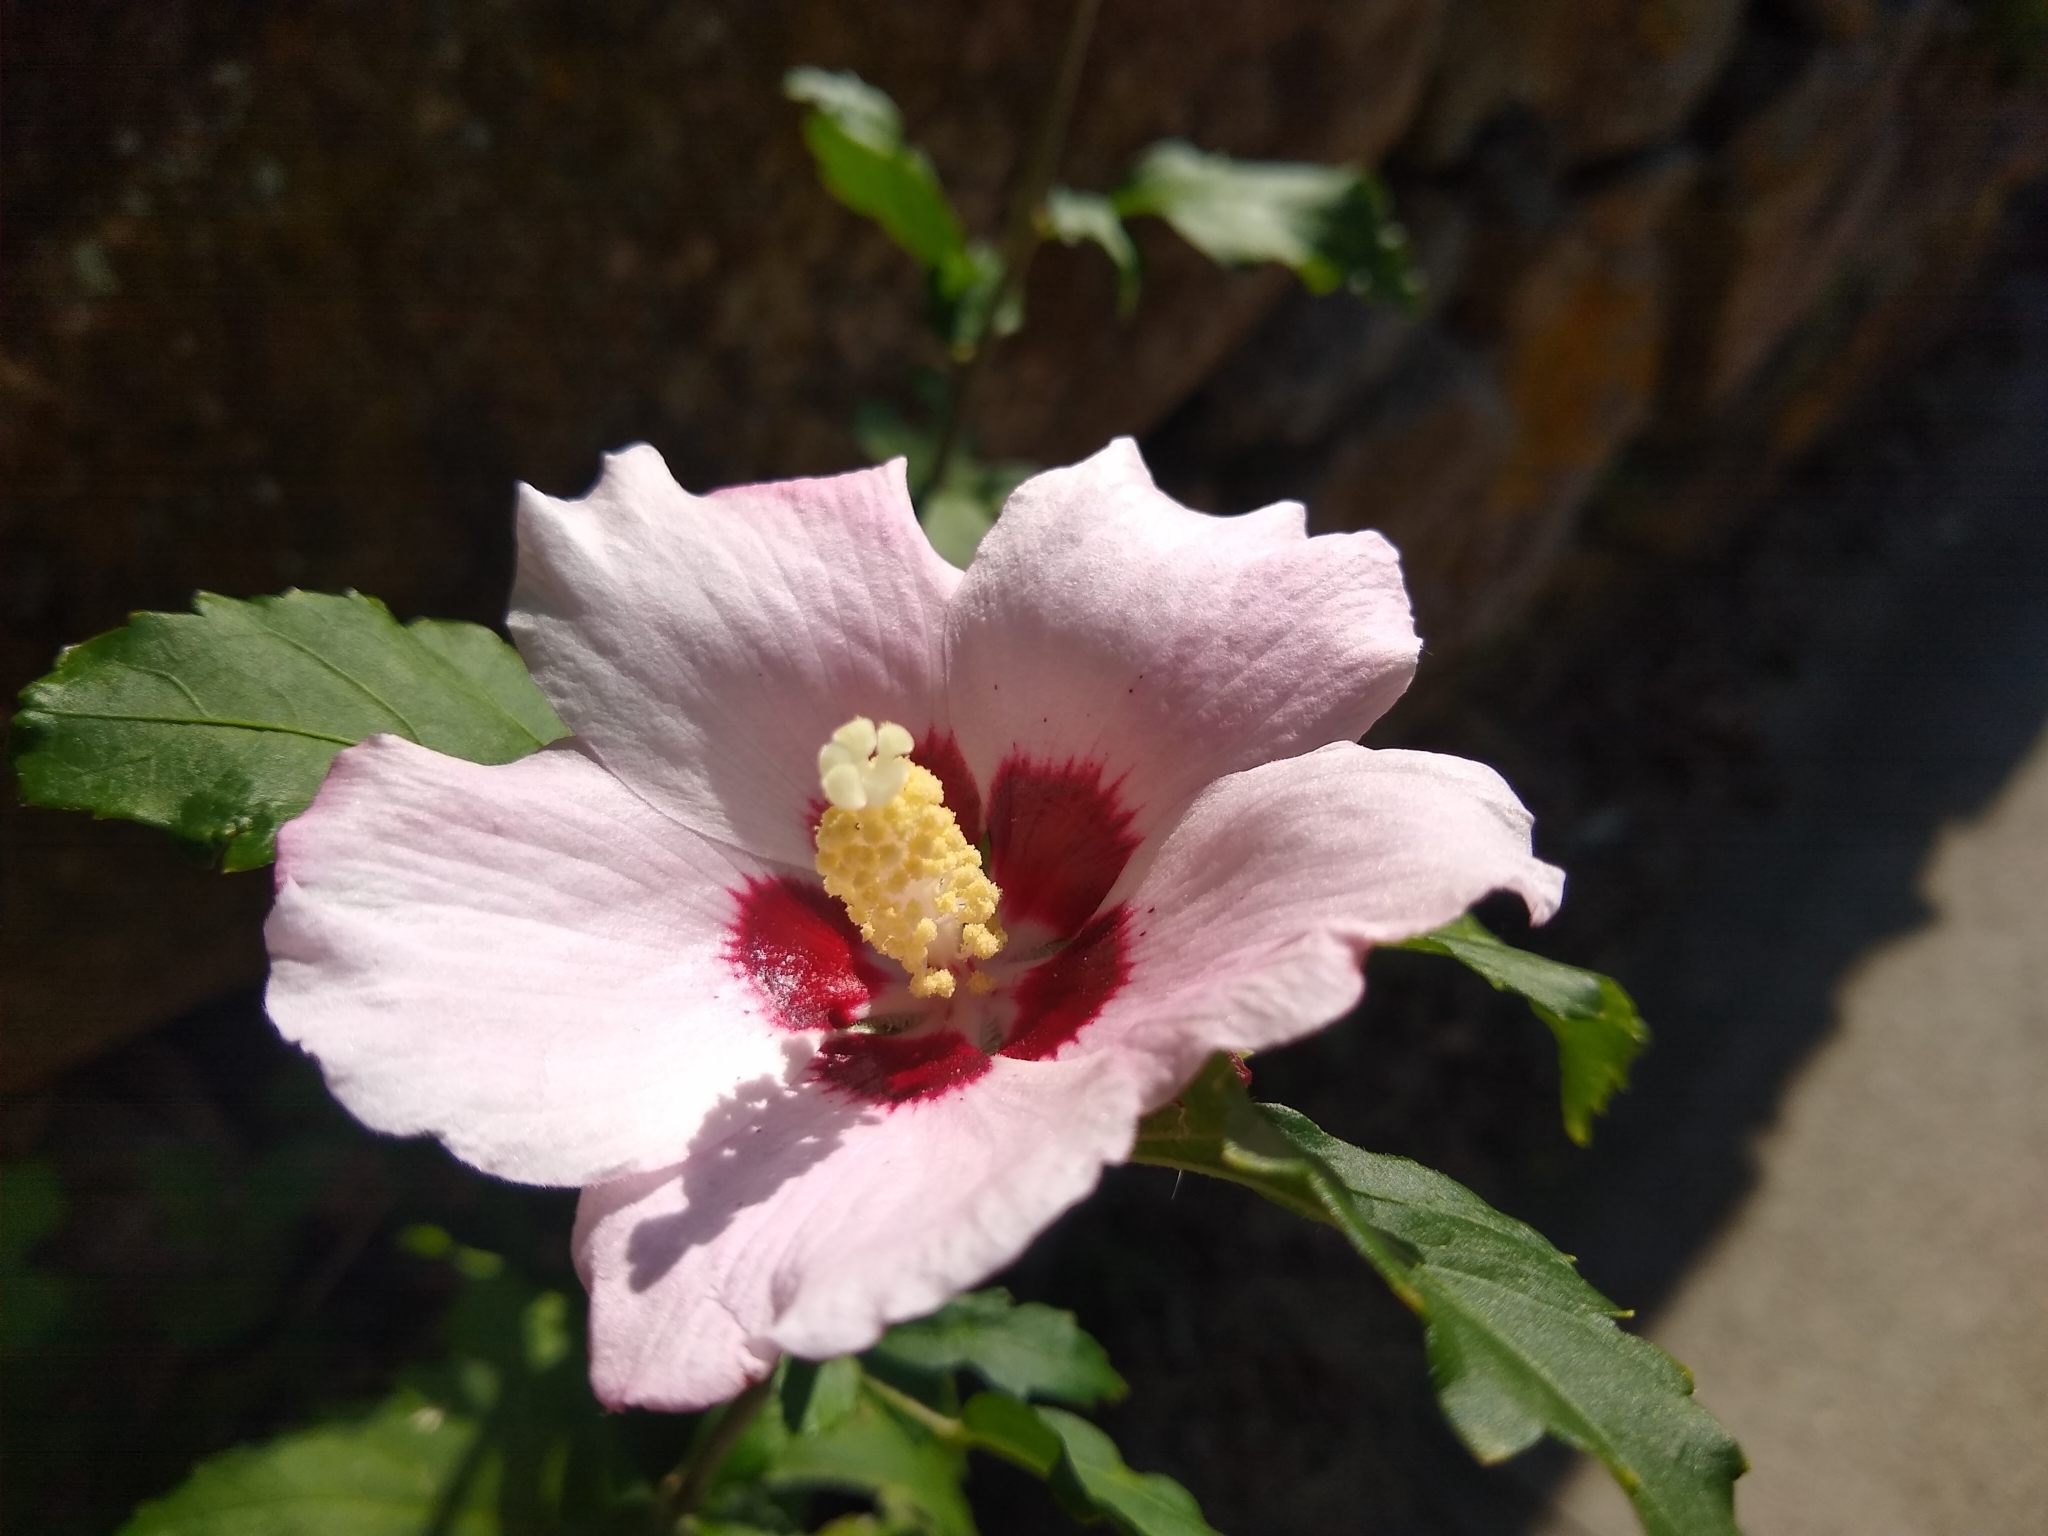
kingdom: Plantae
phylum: Tracheophyta
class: Magnoliopsida
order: Malvales
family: Malvaceae
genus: Hibiscus
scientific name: Hibiscus syriacus
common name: Syrian ketmia
